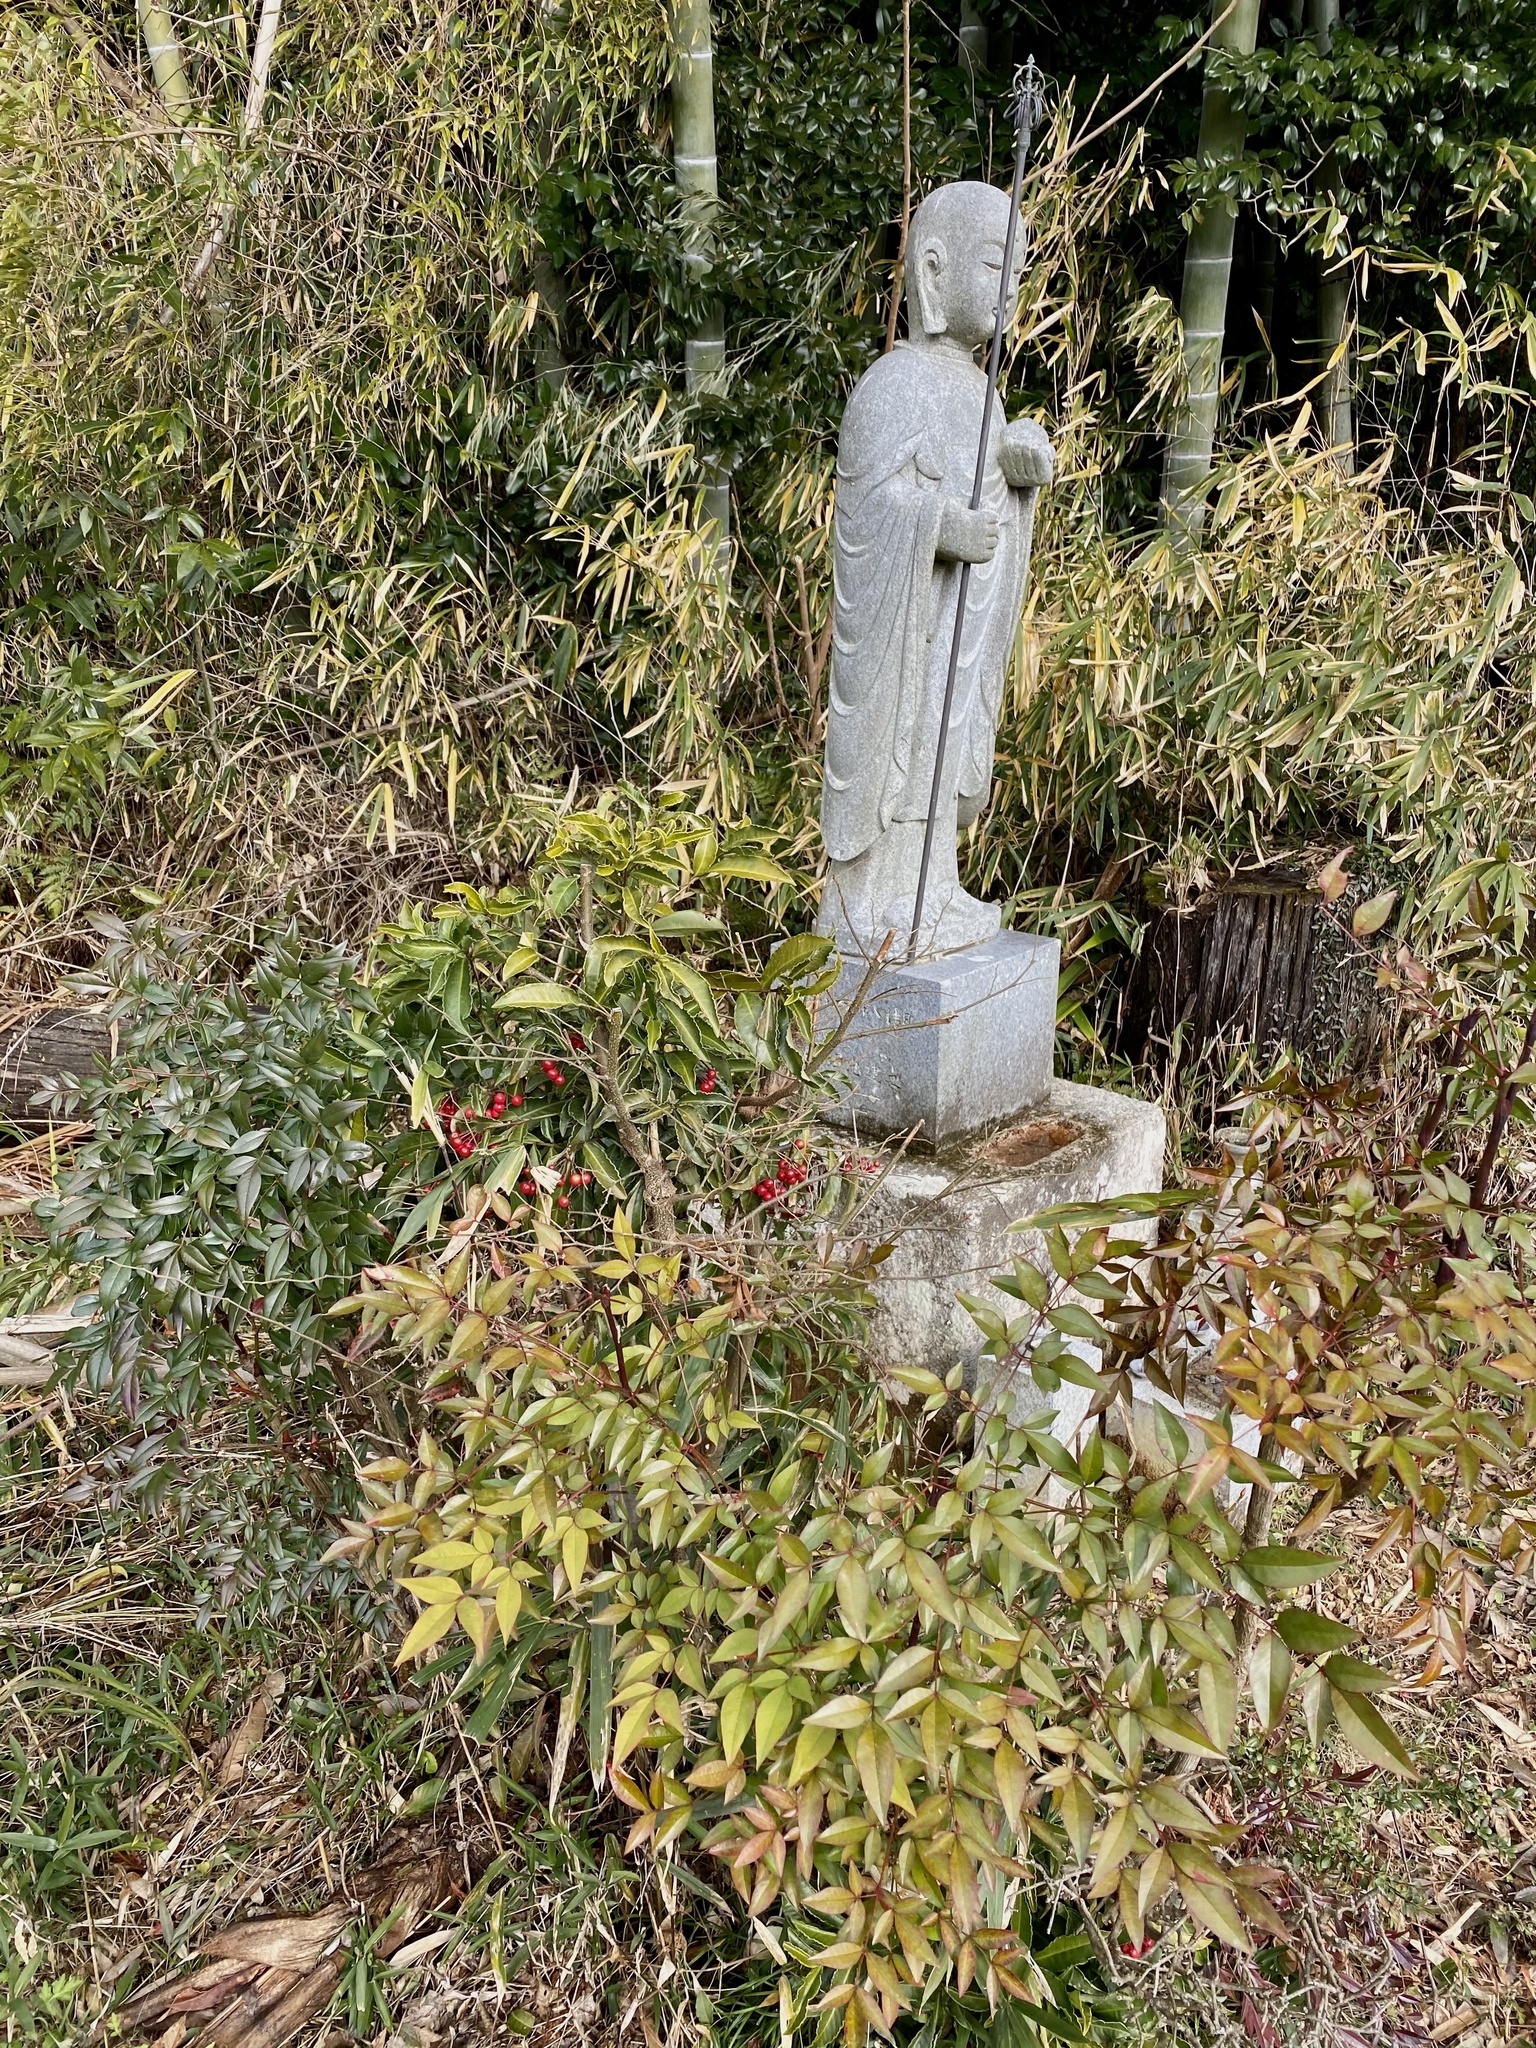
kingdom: Plantae
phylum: Tracheophyta
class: Magnoliopsida
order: Ranunculales
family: Berberidaceae
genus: Nandina
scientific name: Nandina domestica
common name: Sacred bamboo
